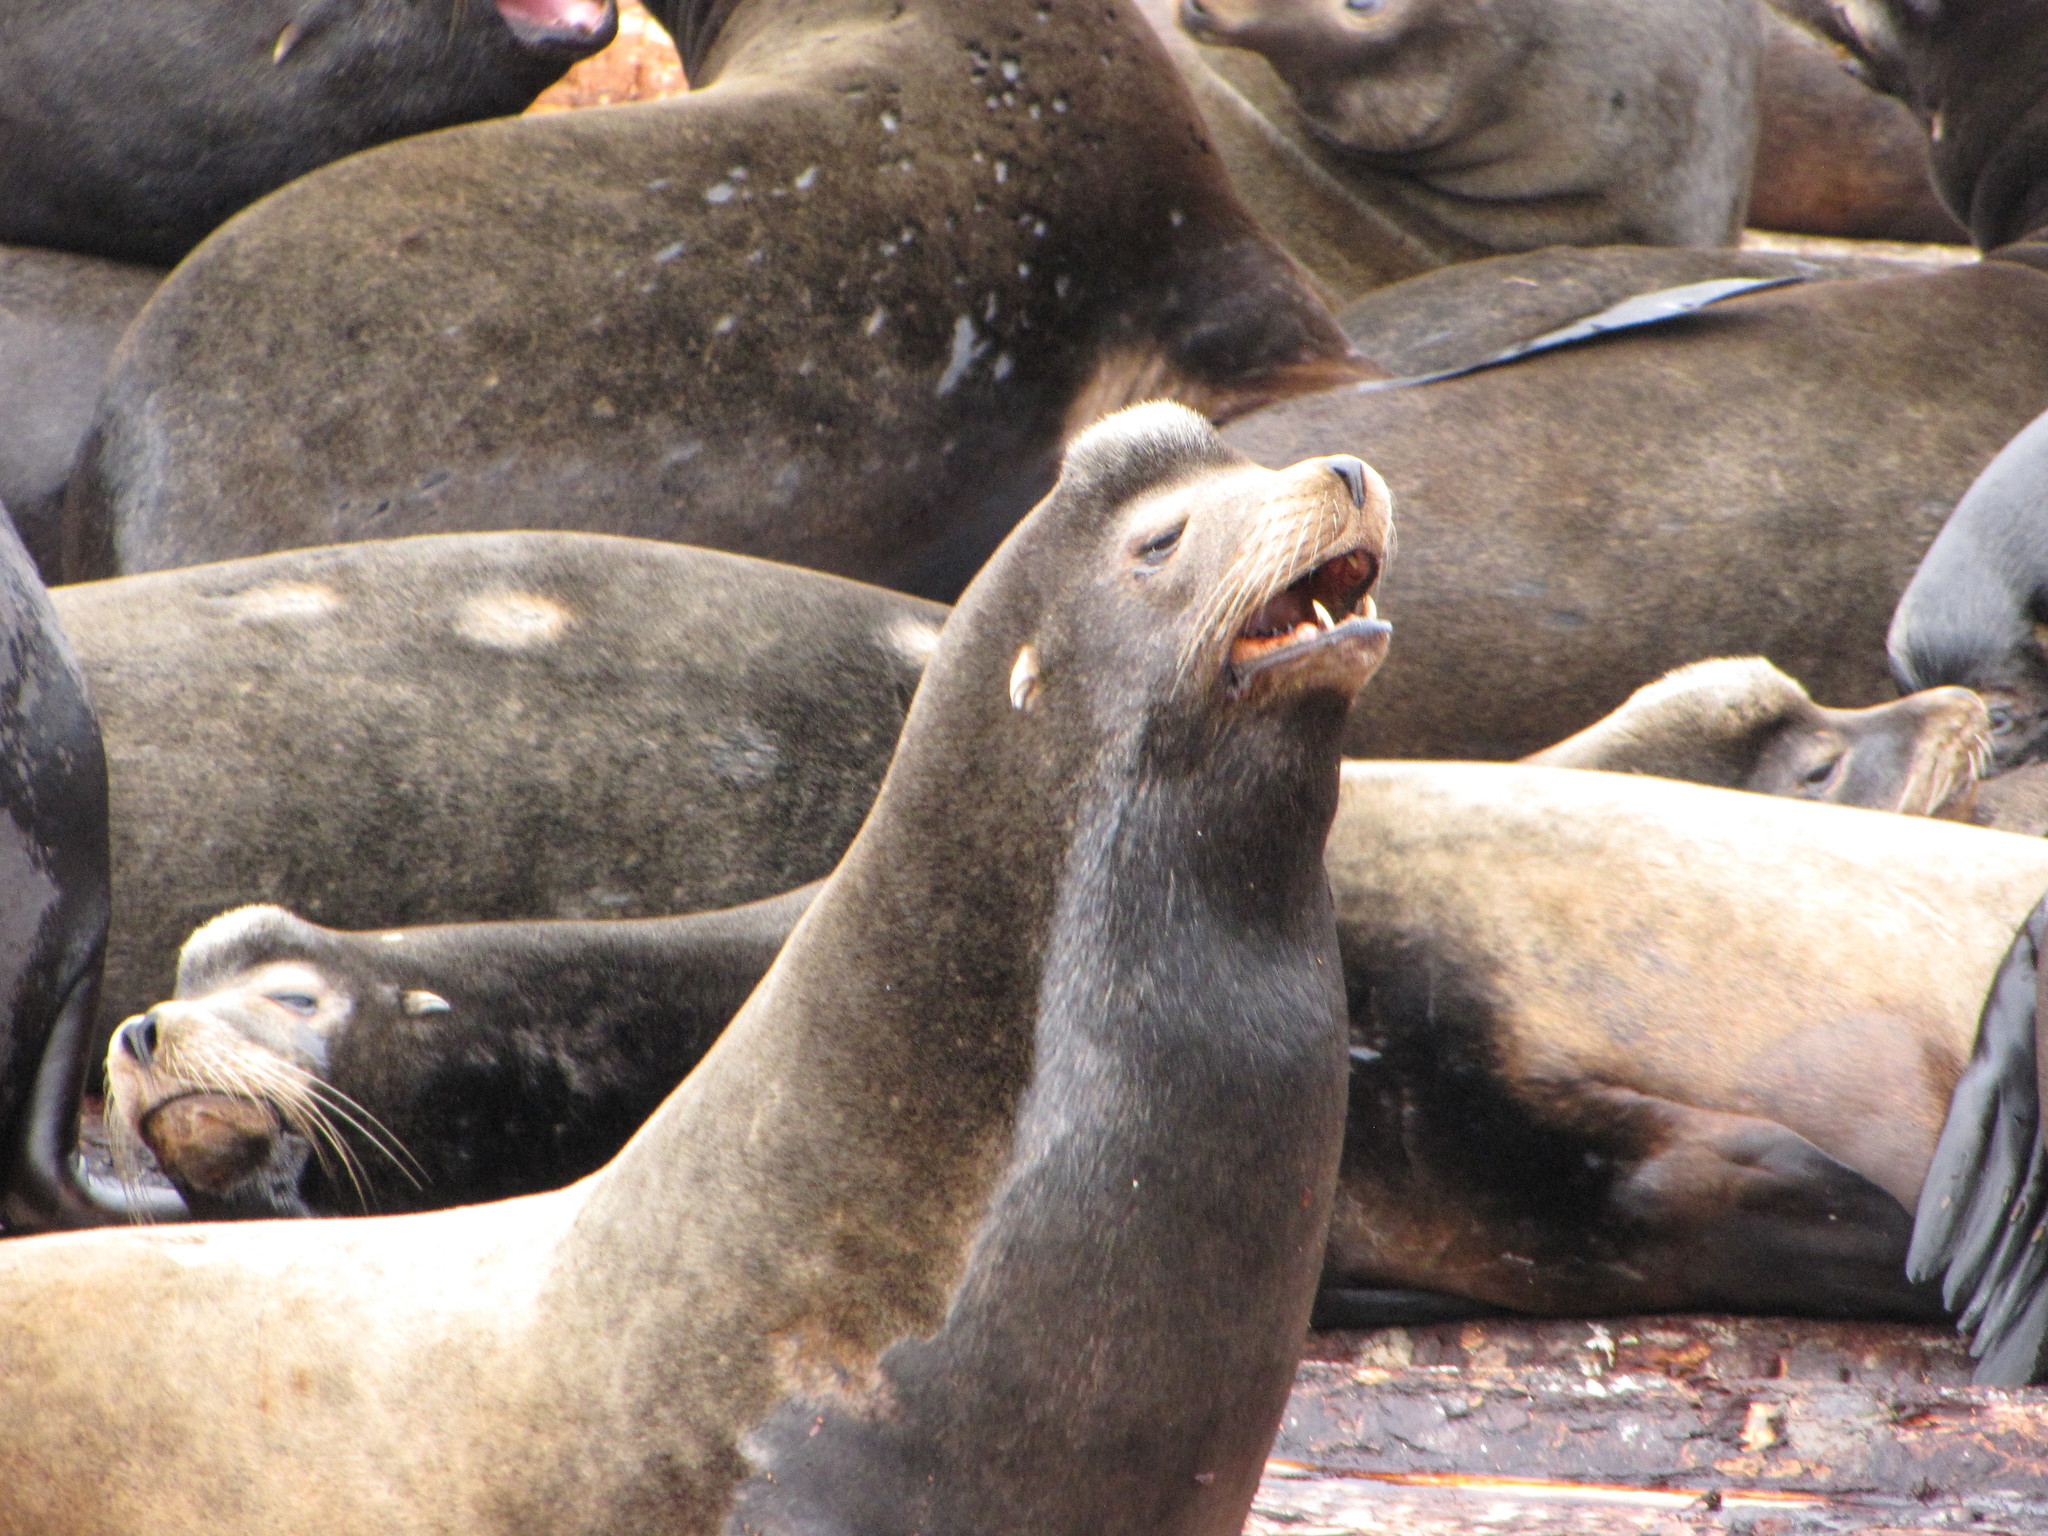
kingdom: Animalia
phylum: Chordata
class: Mammalia
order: Carnivora
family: Otariidae
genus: Zalophus
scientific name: Zalophus californianus
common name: California sea lion
